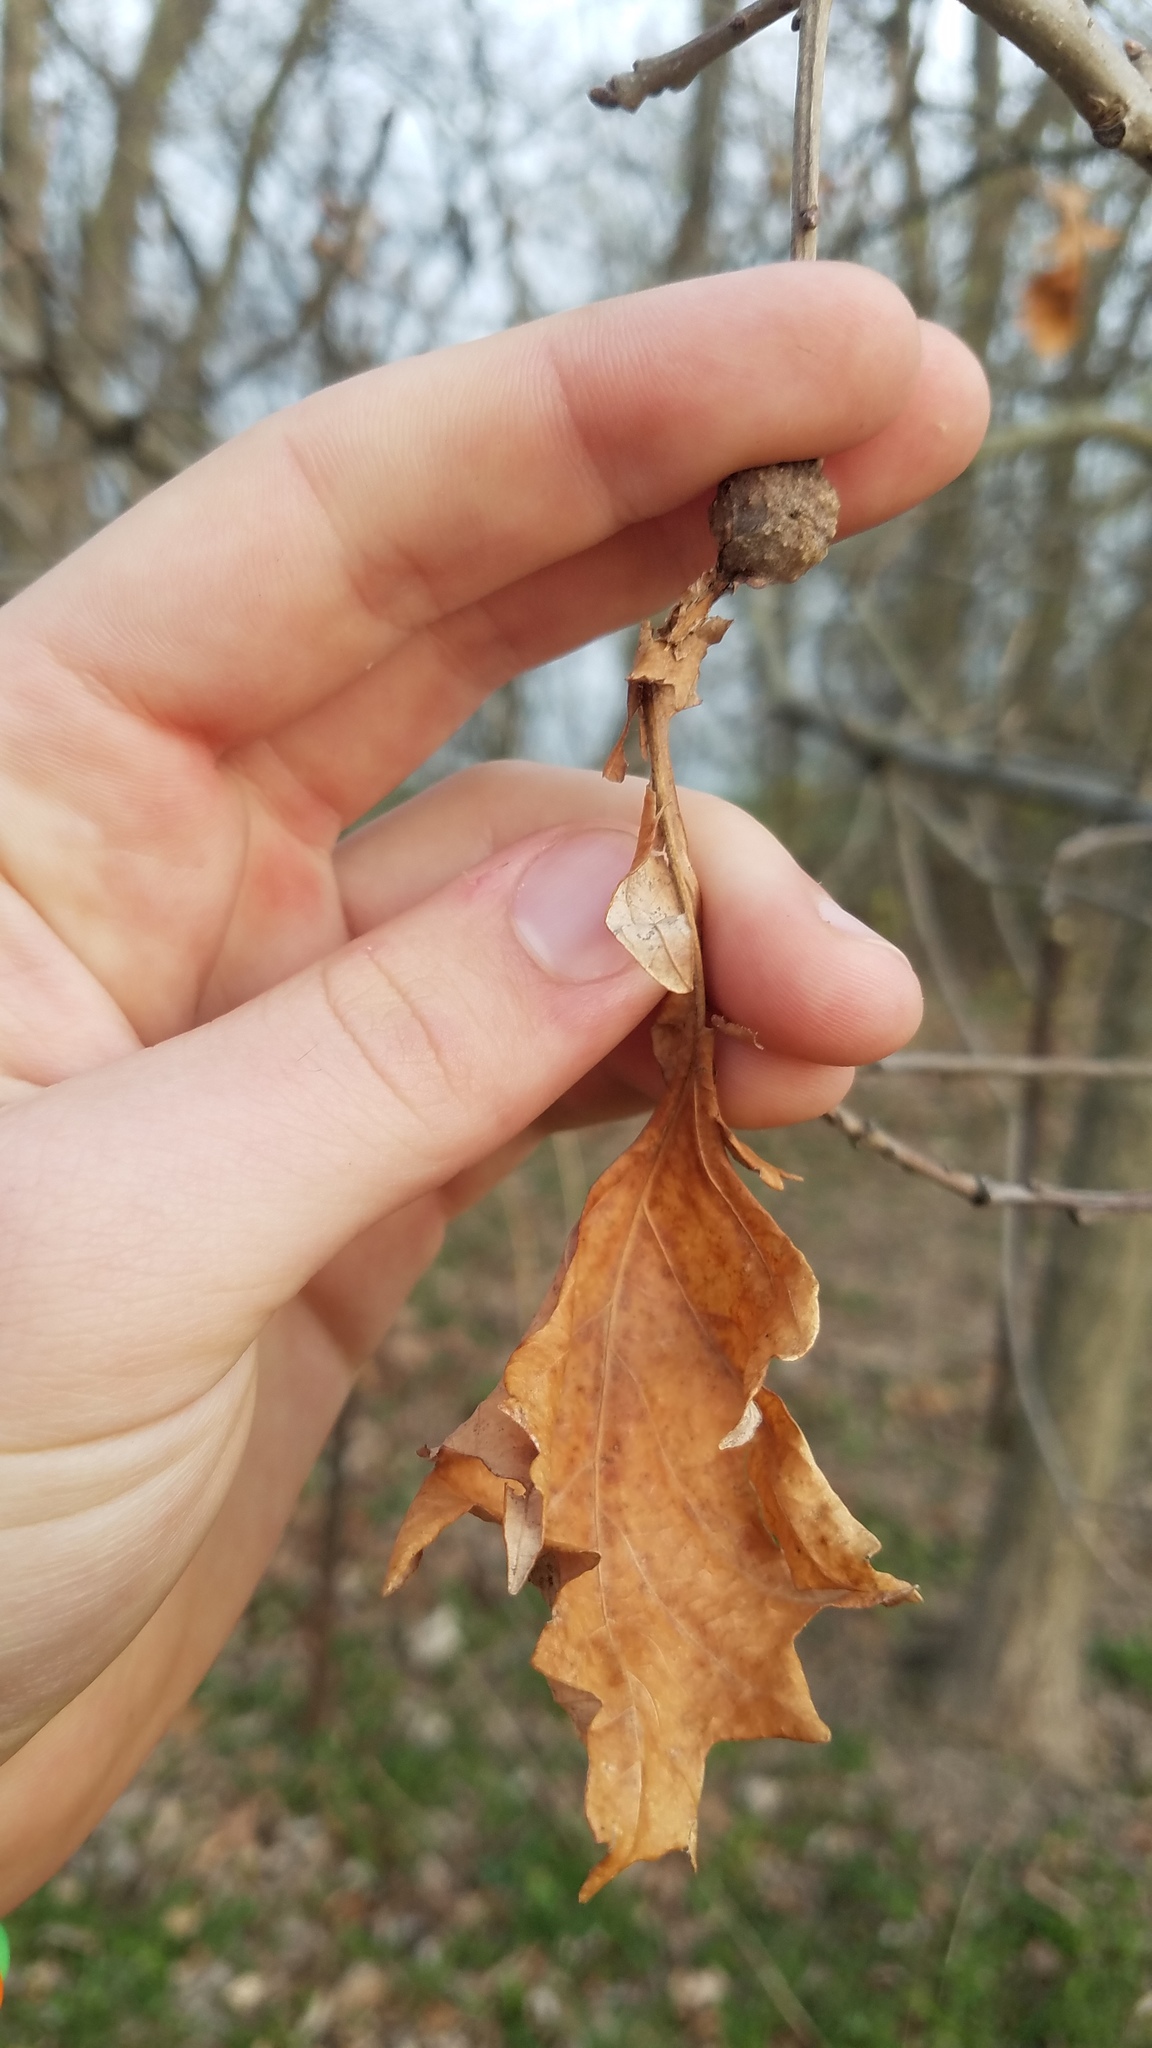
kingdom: Animalia
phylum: Arthropoda
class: Insecta
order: Hymenoptera
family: Cynipidae
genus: Andricus
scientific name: Andricus
